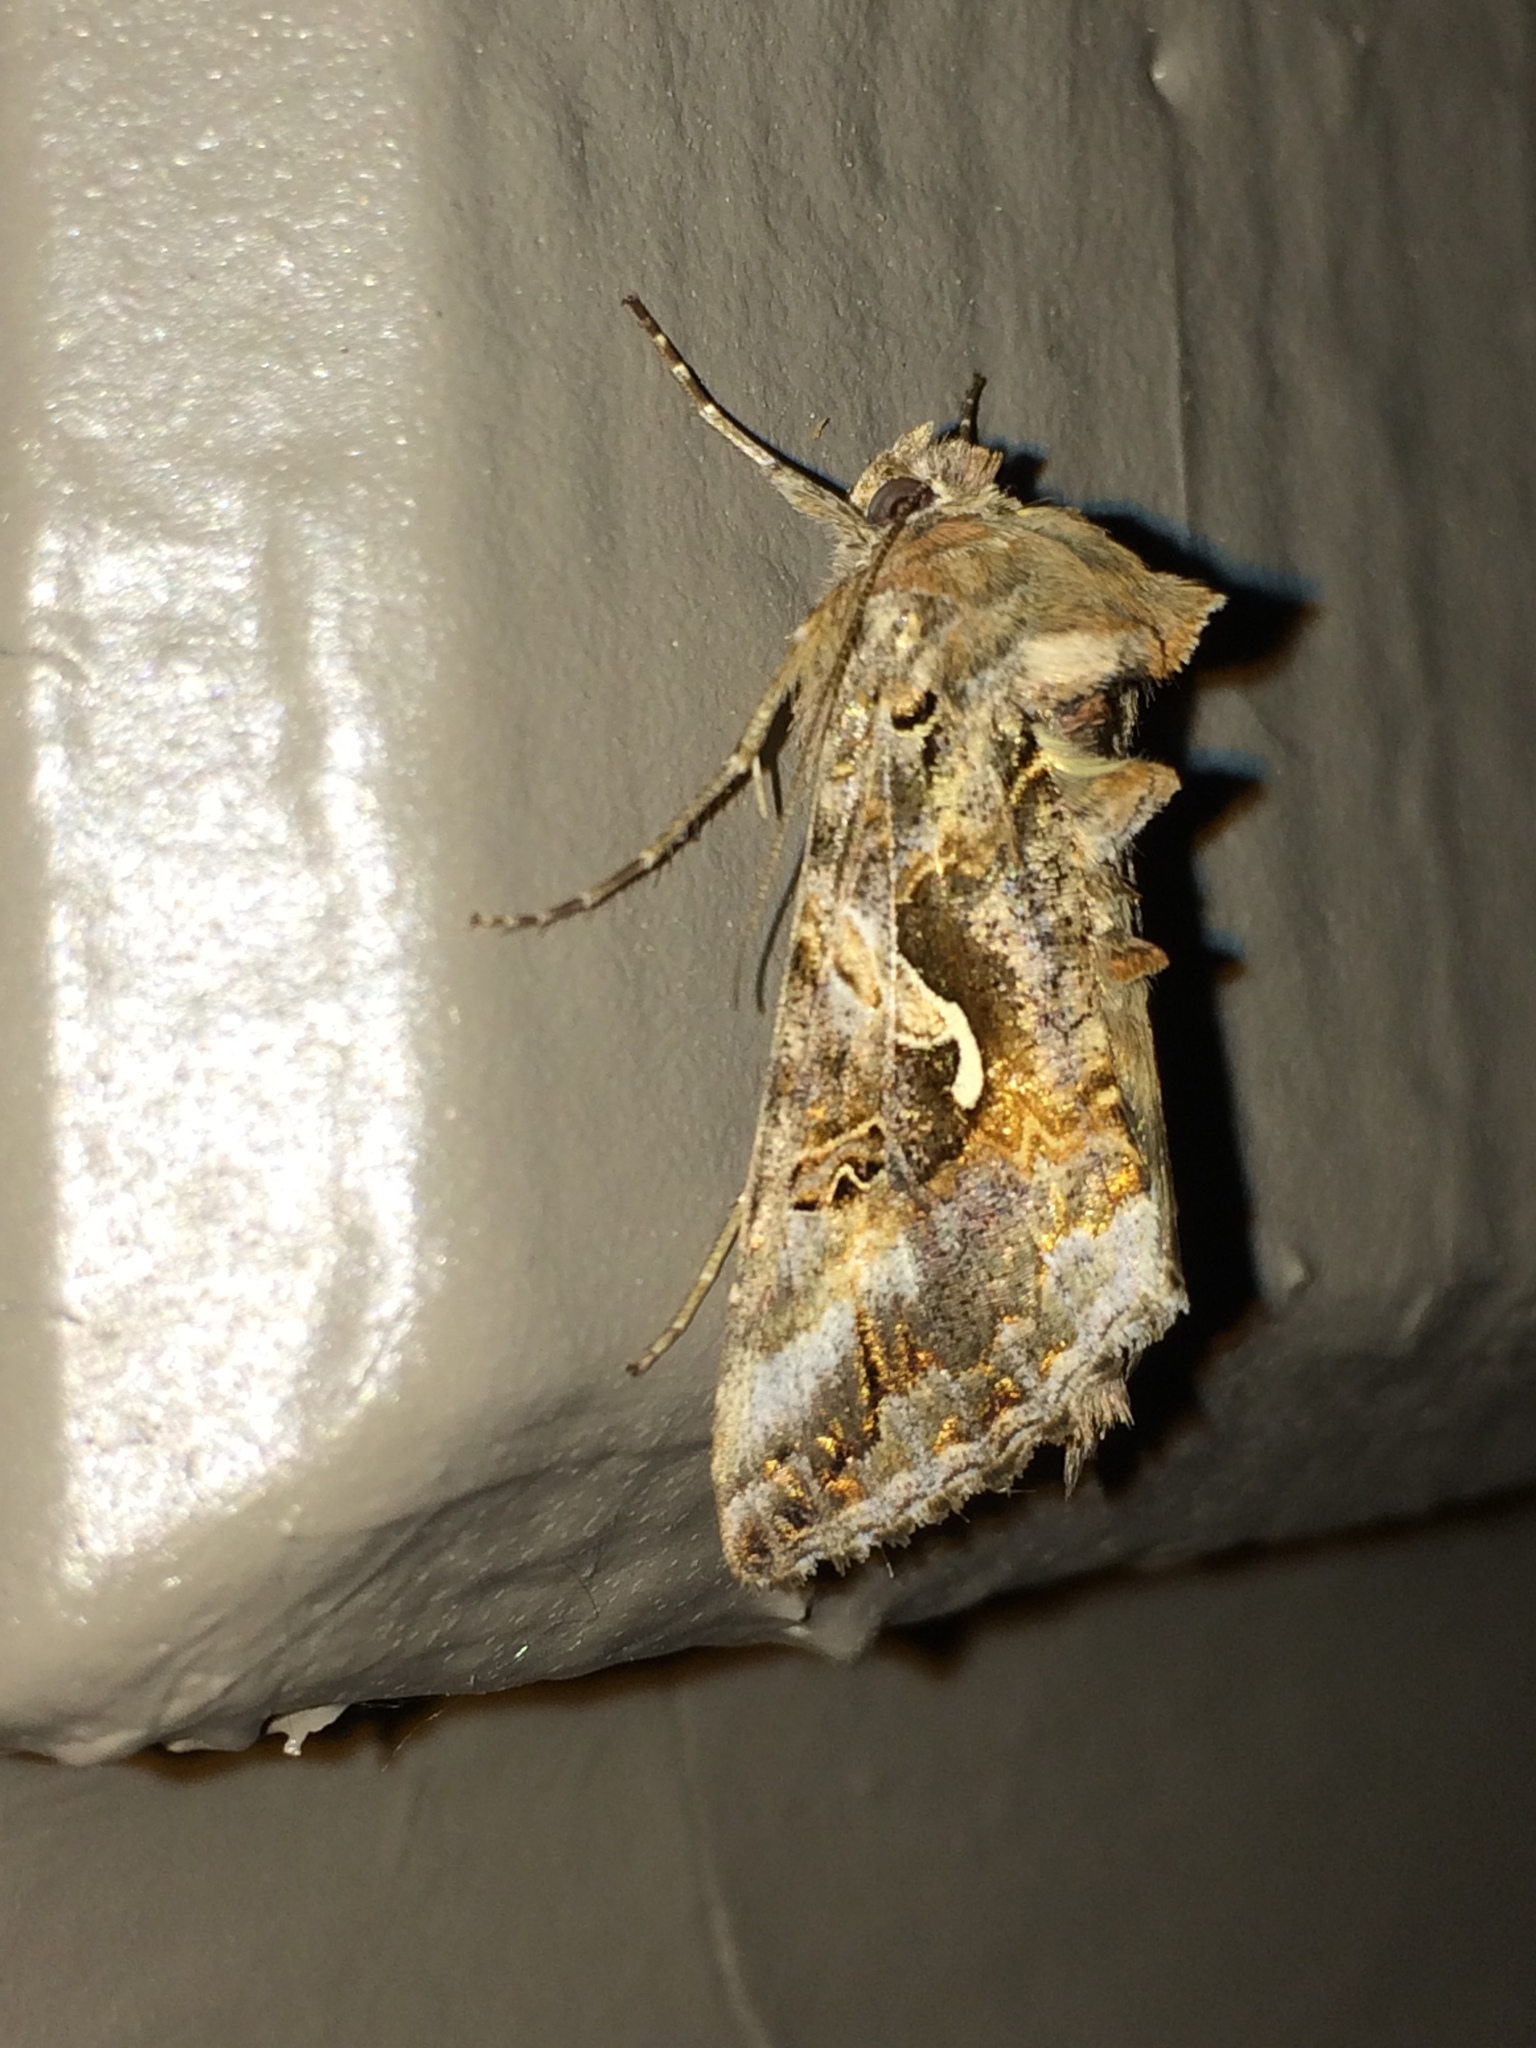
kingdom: Animalia
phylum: Arthropoda
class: Insecta
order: Lepidoptera
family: Noctuidae
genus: Autographa
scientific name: Autographa californica
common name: Alfalfa looper
